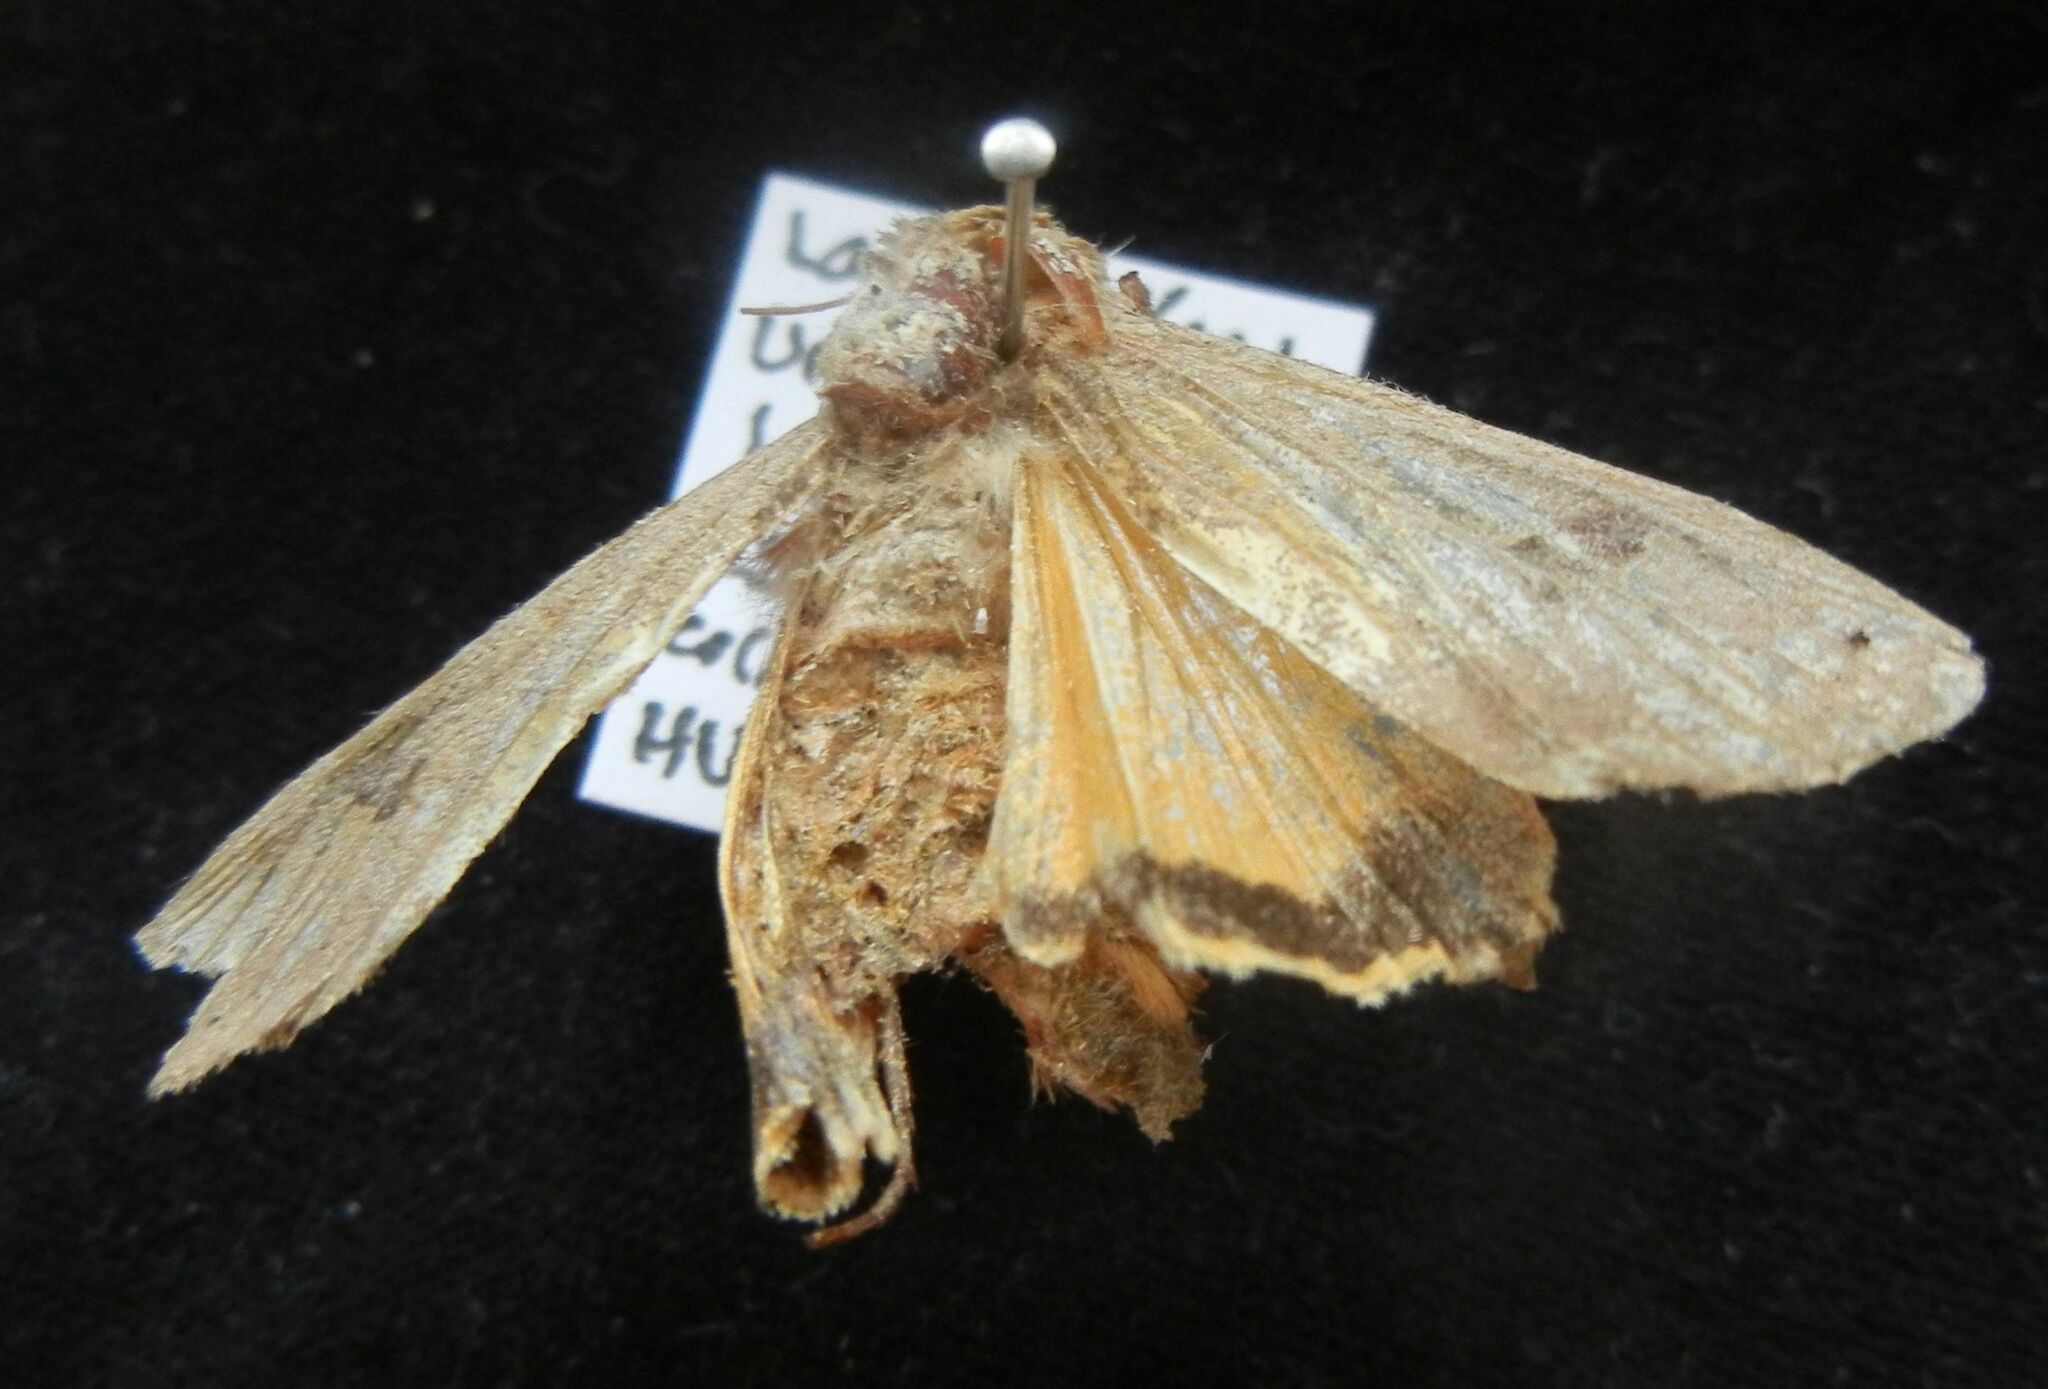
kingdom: Animalia
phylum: Arthropoda
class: Insecta
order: Lepidoptera
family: Noctuidae
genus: Noctua
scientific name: Noctua pronuba
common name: Large yellow underwing
